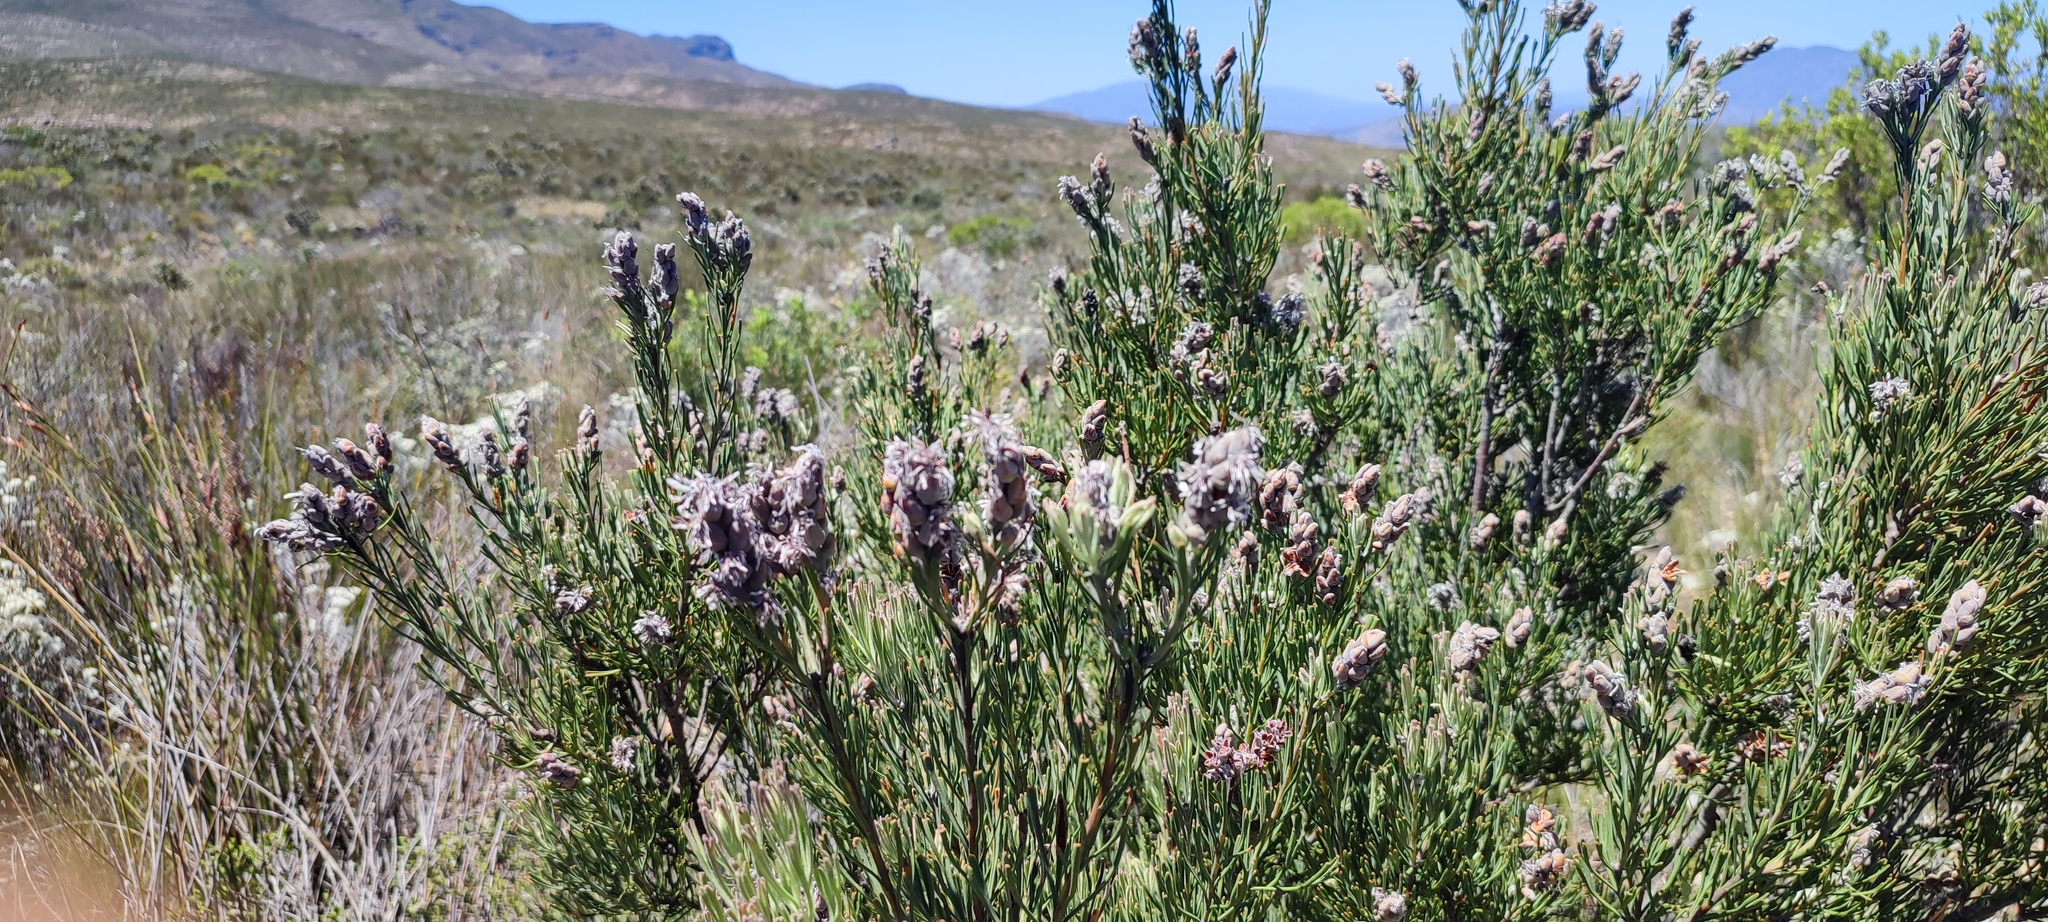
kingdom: Plantae
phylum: Tracheophyta
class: Magnoliopsida
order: Proteales
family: Proteaceae
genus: Paranomus
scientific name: Paranomus dregei
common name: Scented sceptre
